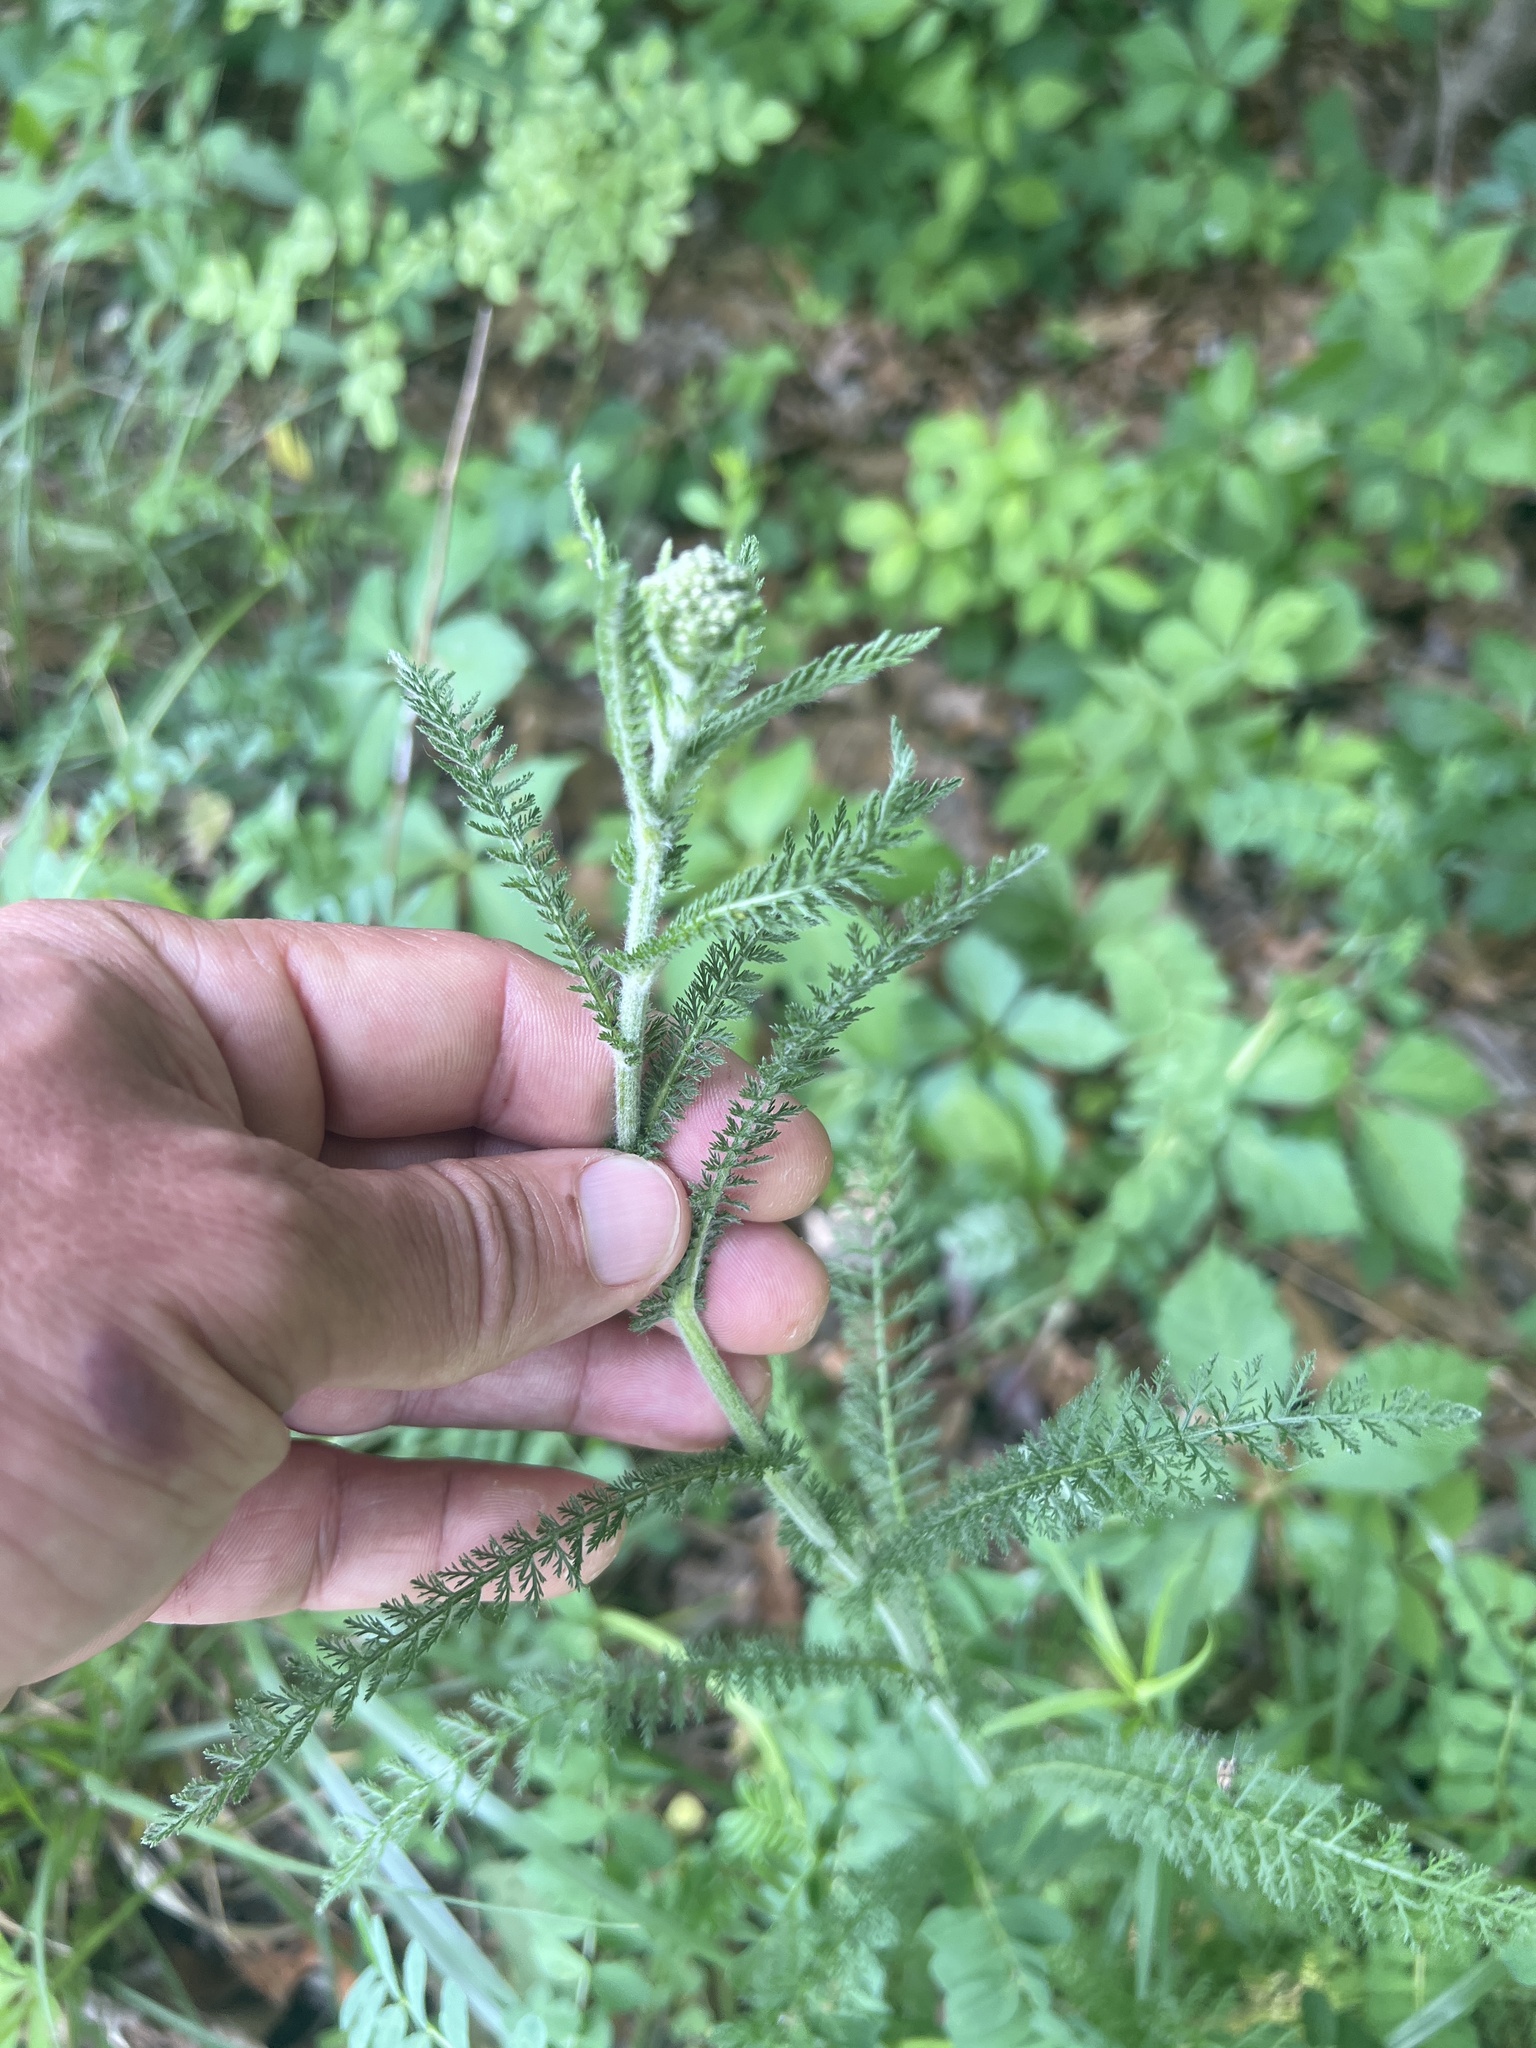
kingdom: Plantae
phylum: Tracheophyta
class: Magnoliopsida
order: Asterales
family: Asteraceae
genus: Achillea
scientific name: Achillea millefolium
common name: Yarrow
